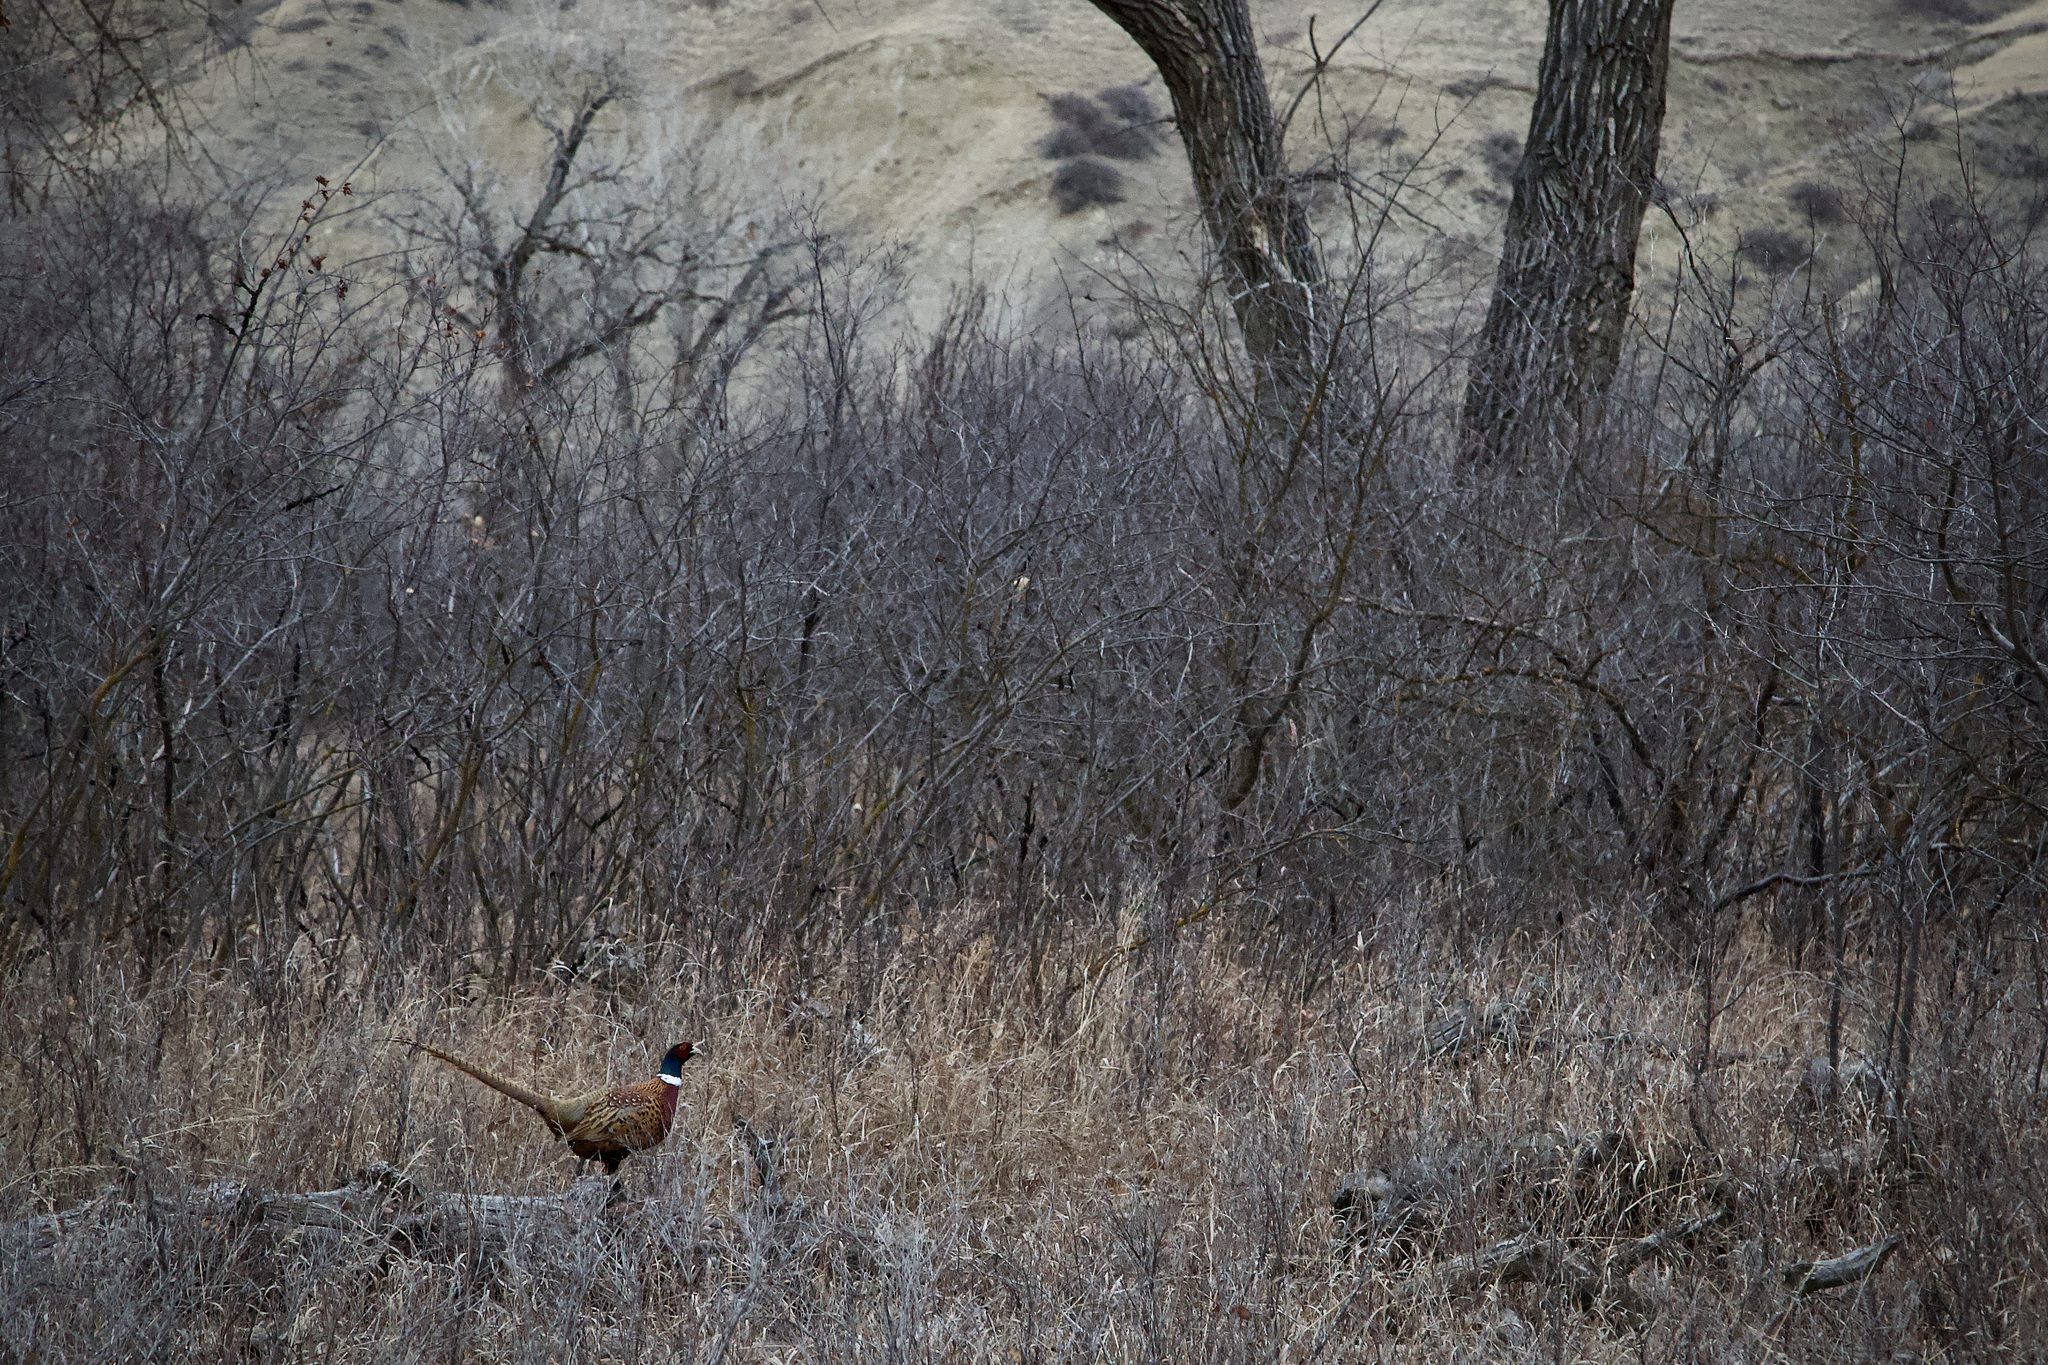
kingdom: Animalia
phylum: Chordata
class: Aves
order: Galliformes
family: Phasianidae
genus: Phasianus
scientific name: Phasianus colchicus
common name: Common pheasant
